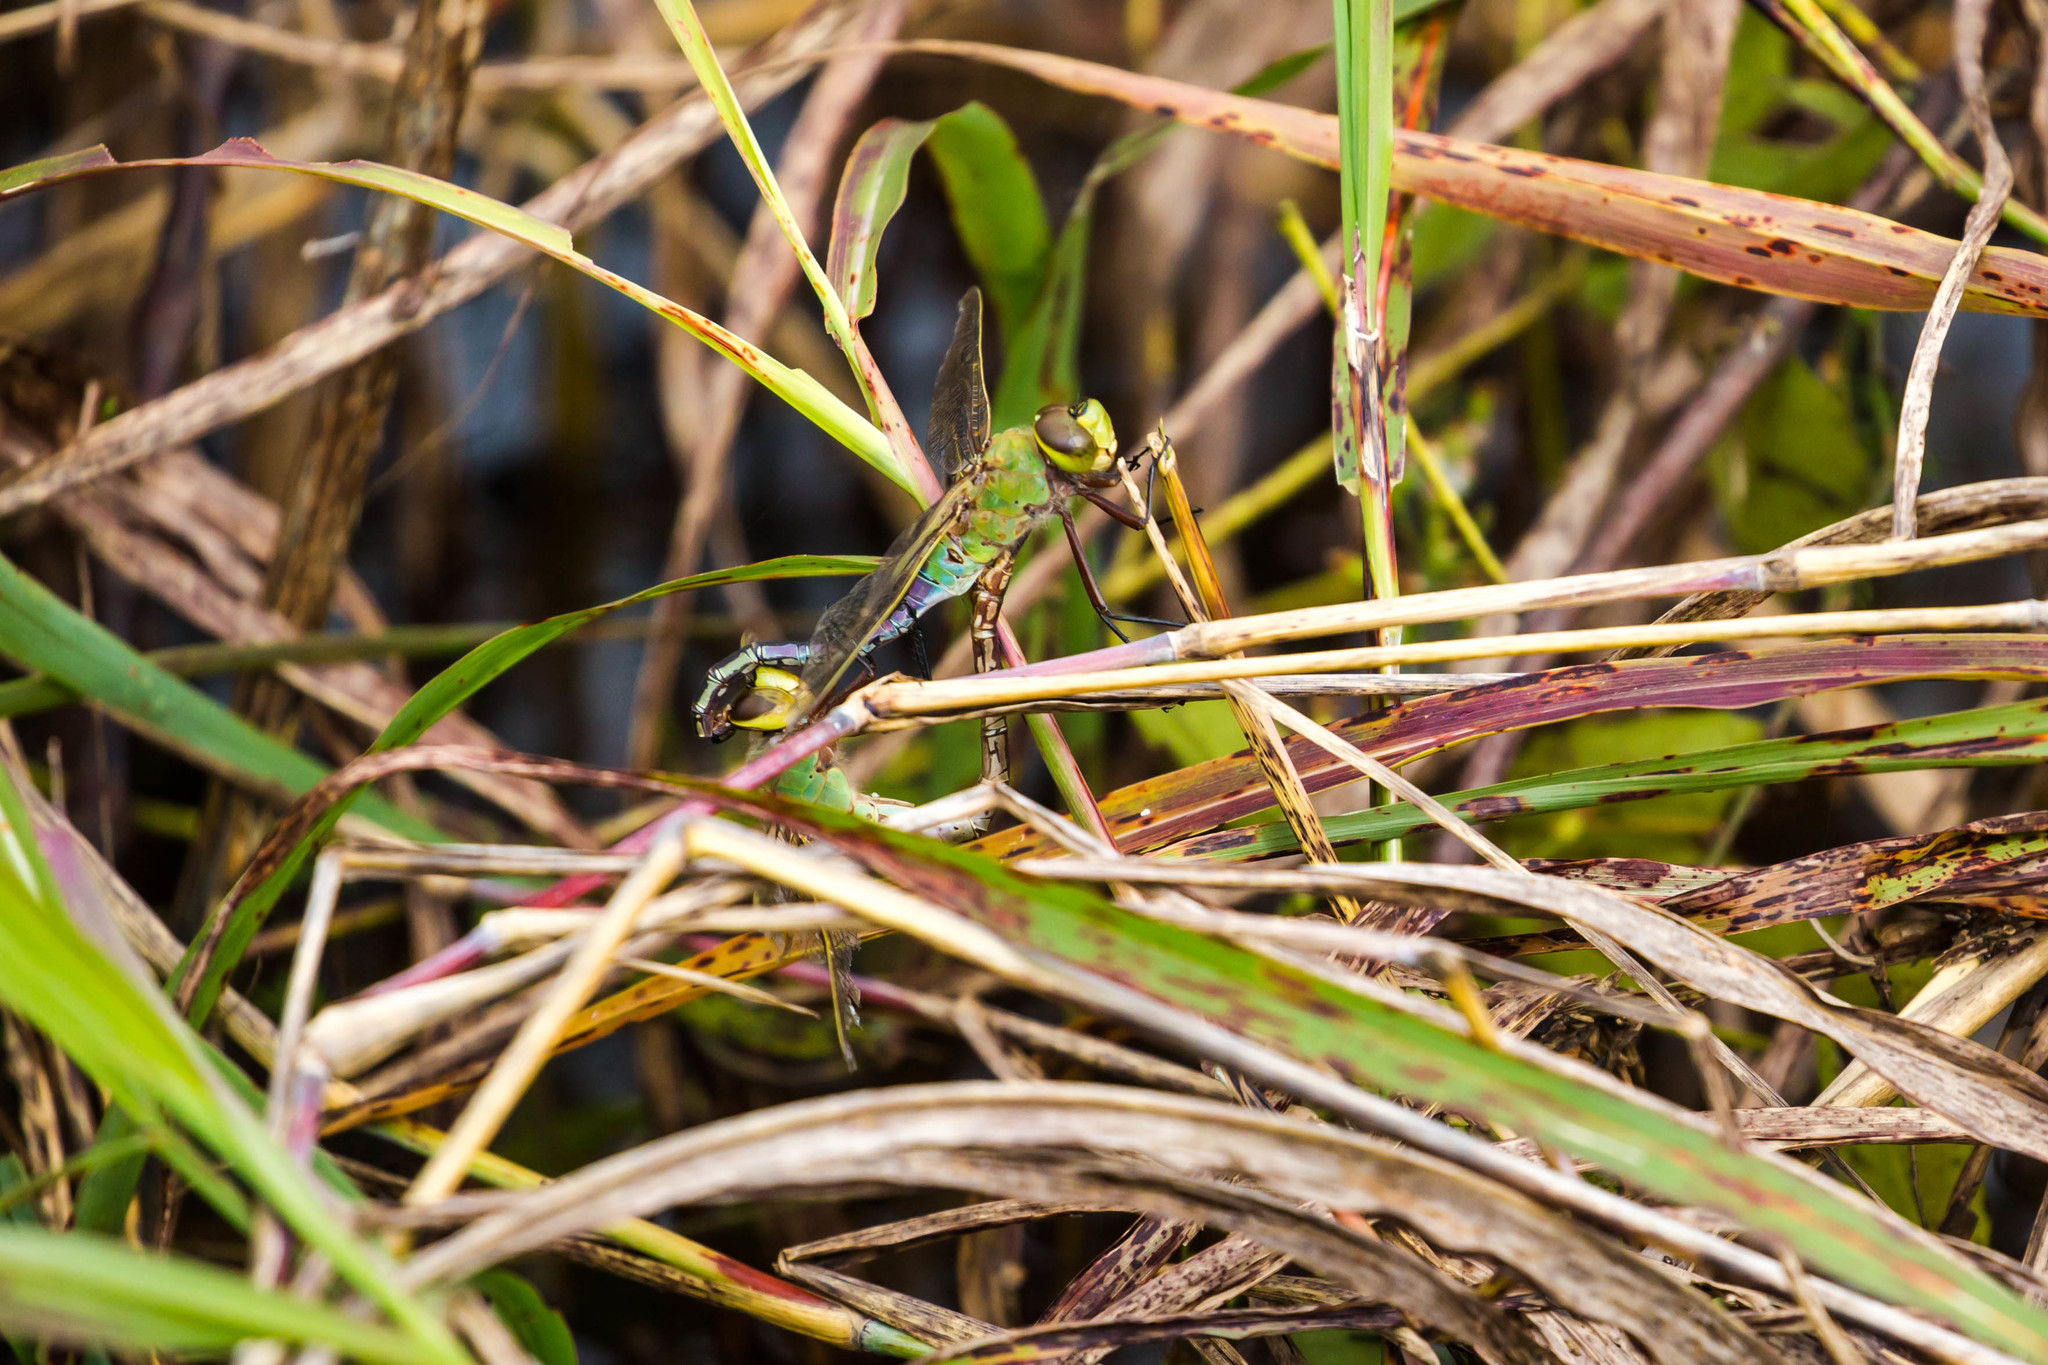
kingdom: Animalia
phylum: Arthropoda
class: Insecta
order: Odonata
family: Aeshnidae
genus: Anax
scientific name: Anax junius
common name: Common green darner
